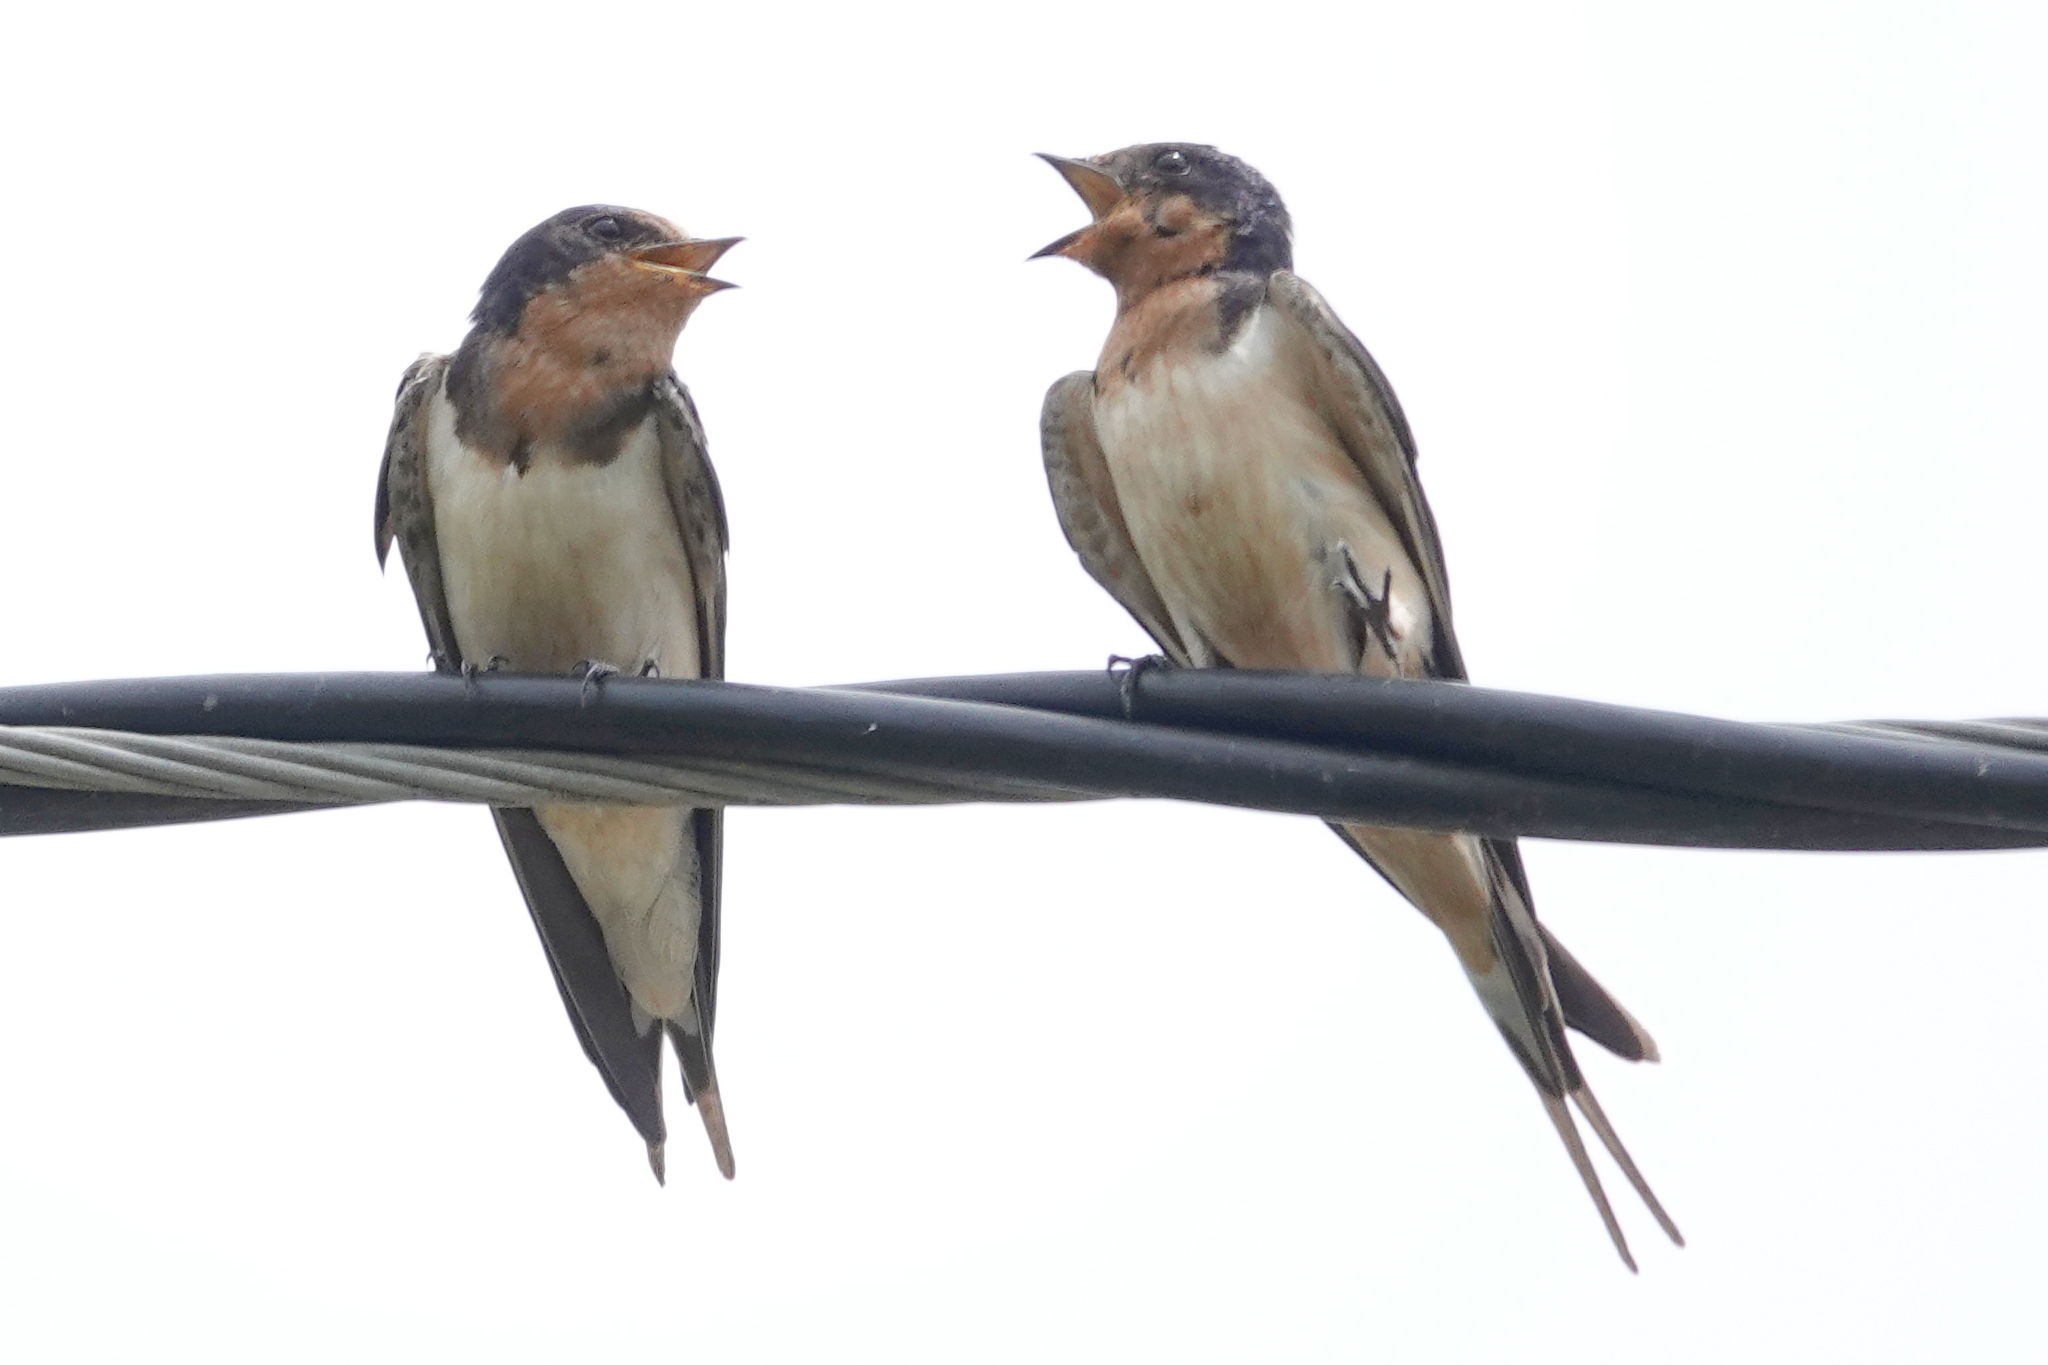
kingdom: Animalia
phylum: Chordata
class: Aves
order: Passeriformes
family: Hirundinidae
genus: Hirundo
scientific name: Hirundo rustica
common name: Barn swallow
